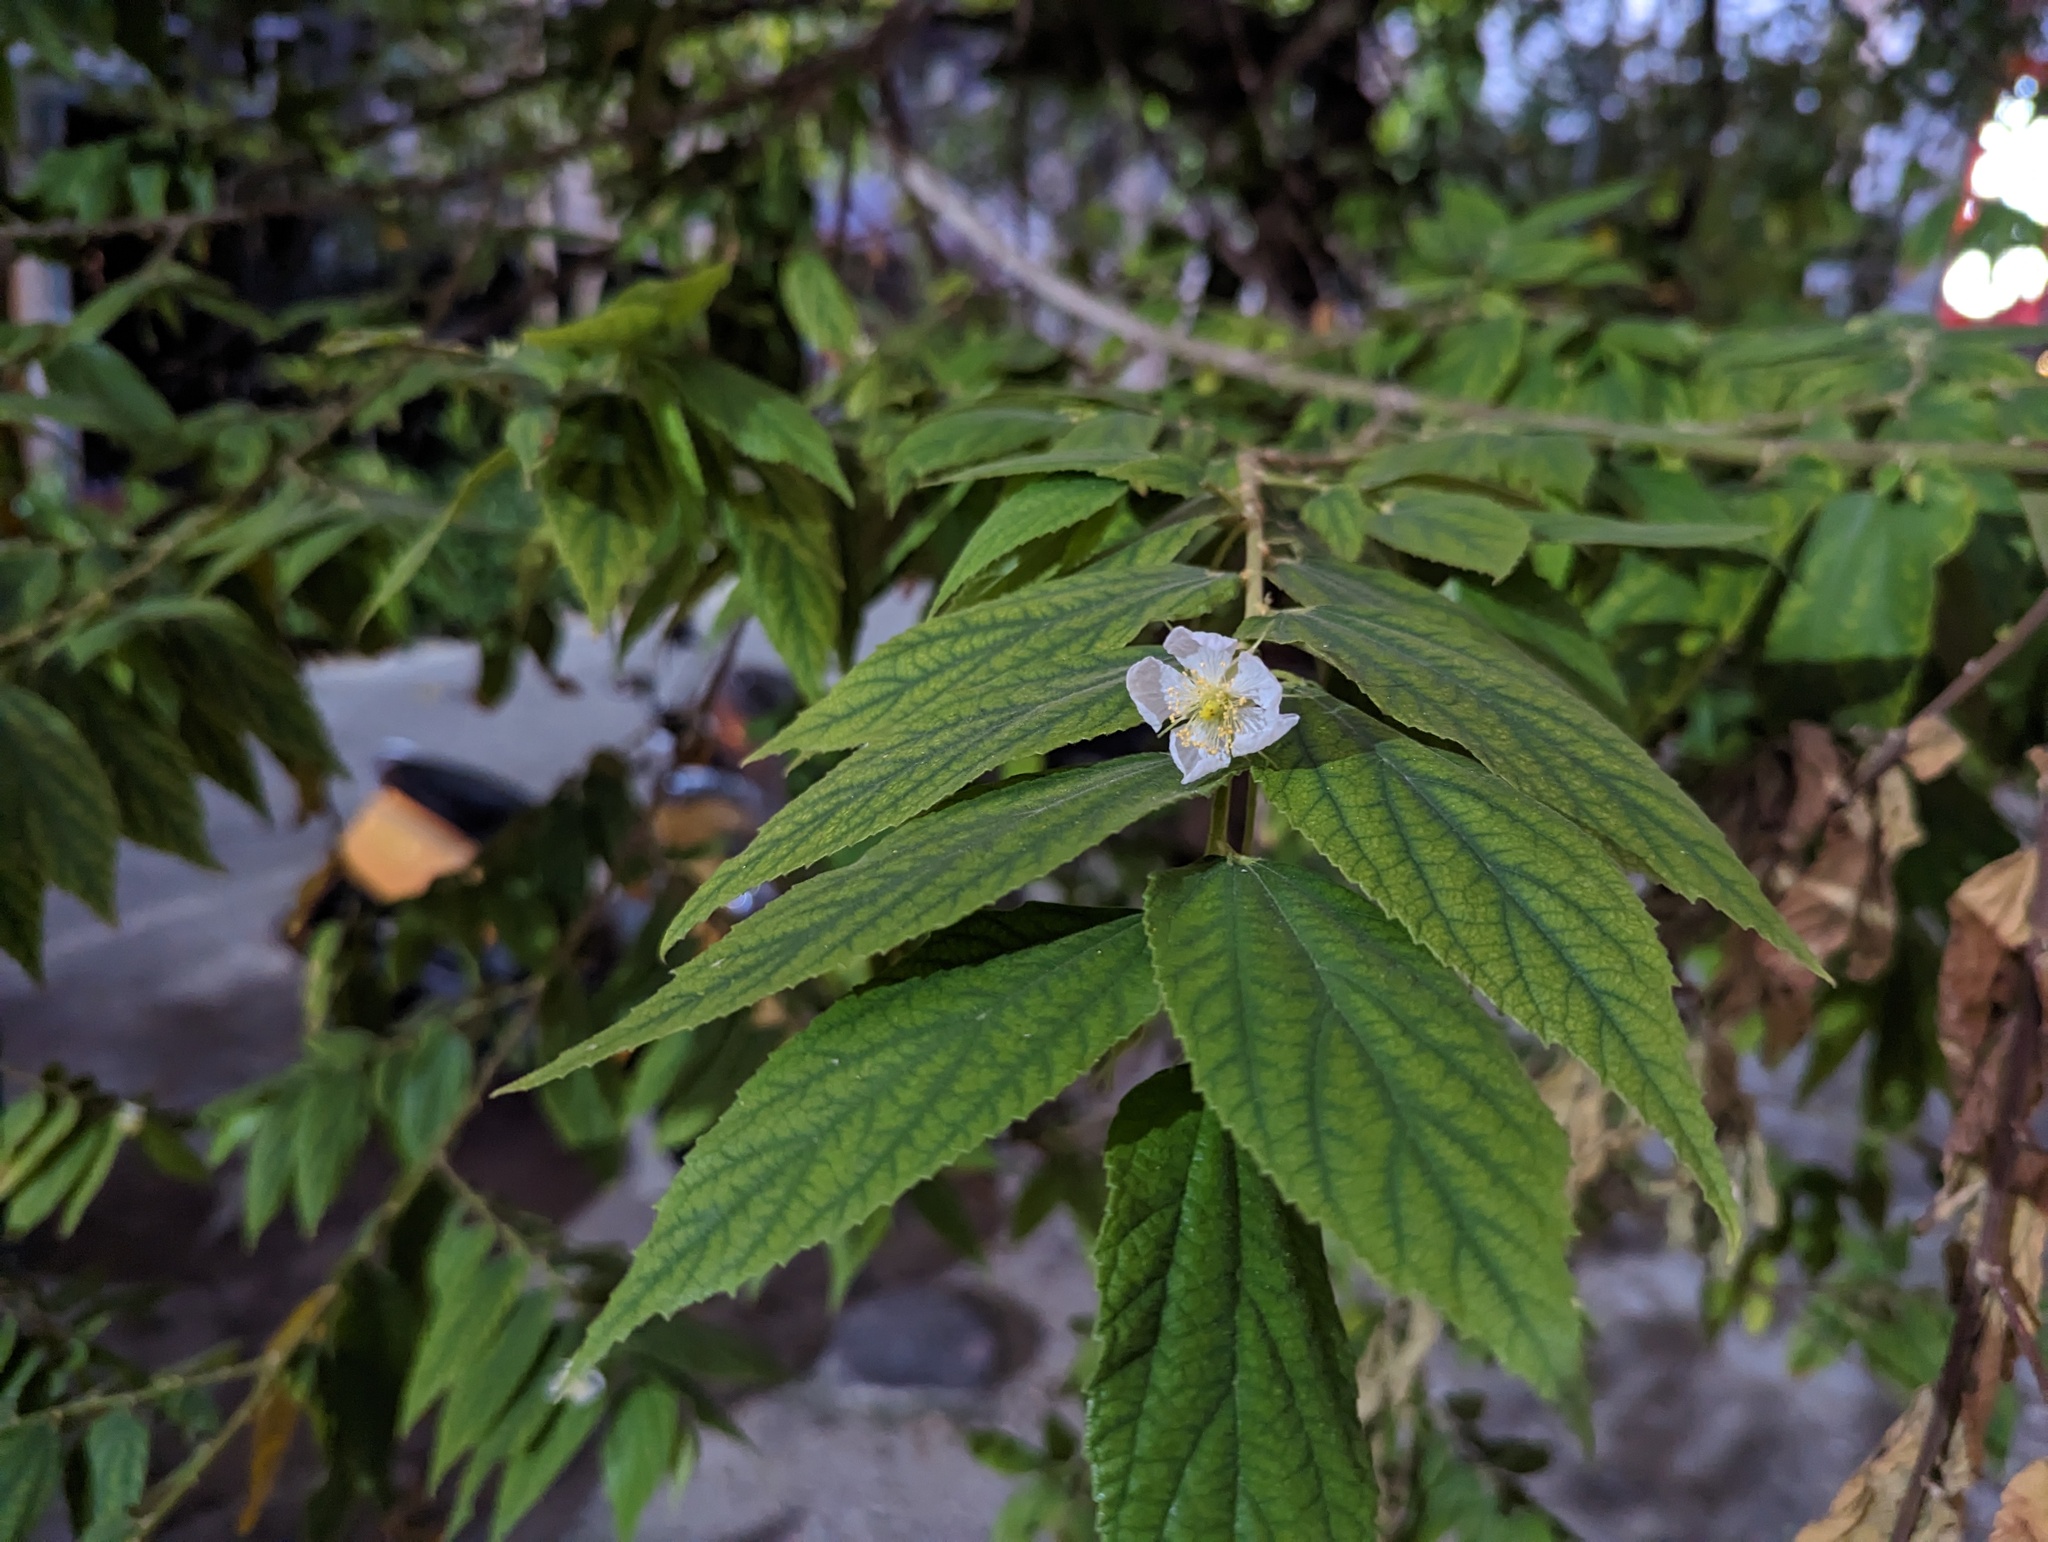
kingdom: Plantae
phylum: Tracheophyta
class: Magnoliopsida
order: Malvales
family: Muntingiaceae
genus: Muntingia
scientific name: Muntingia calabura
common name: Strawberrytree
